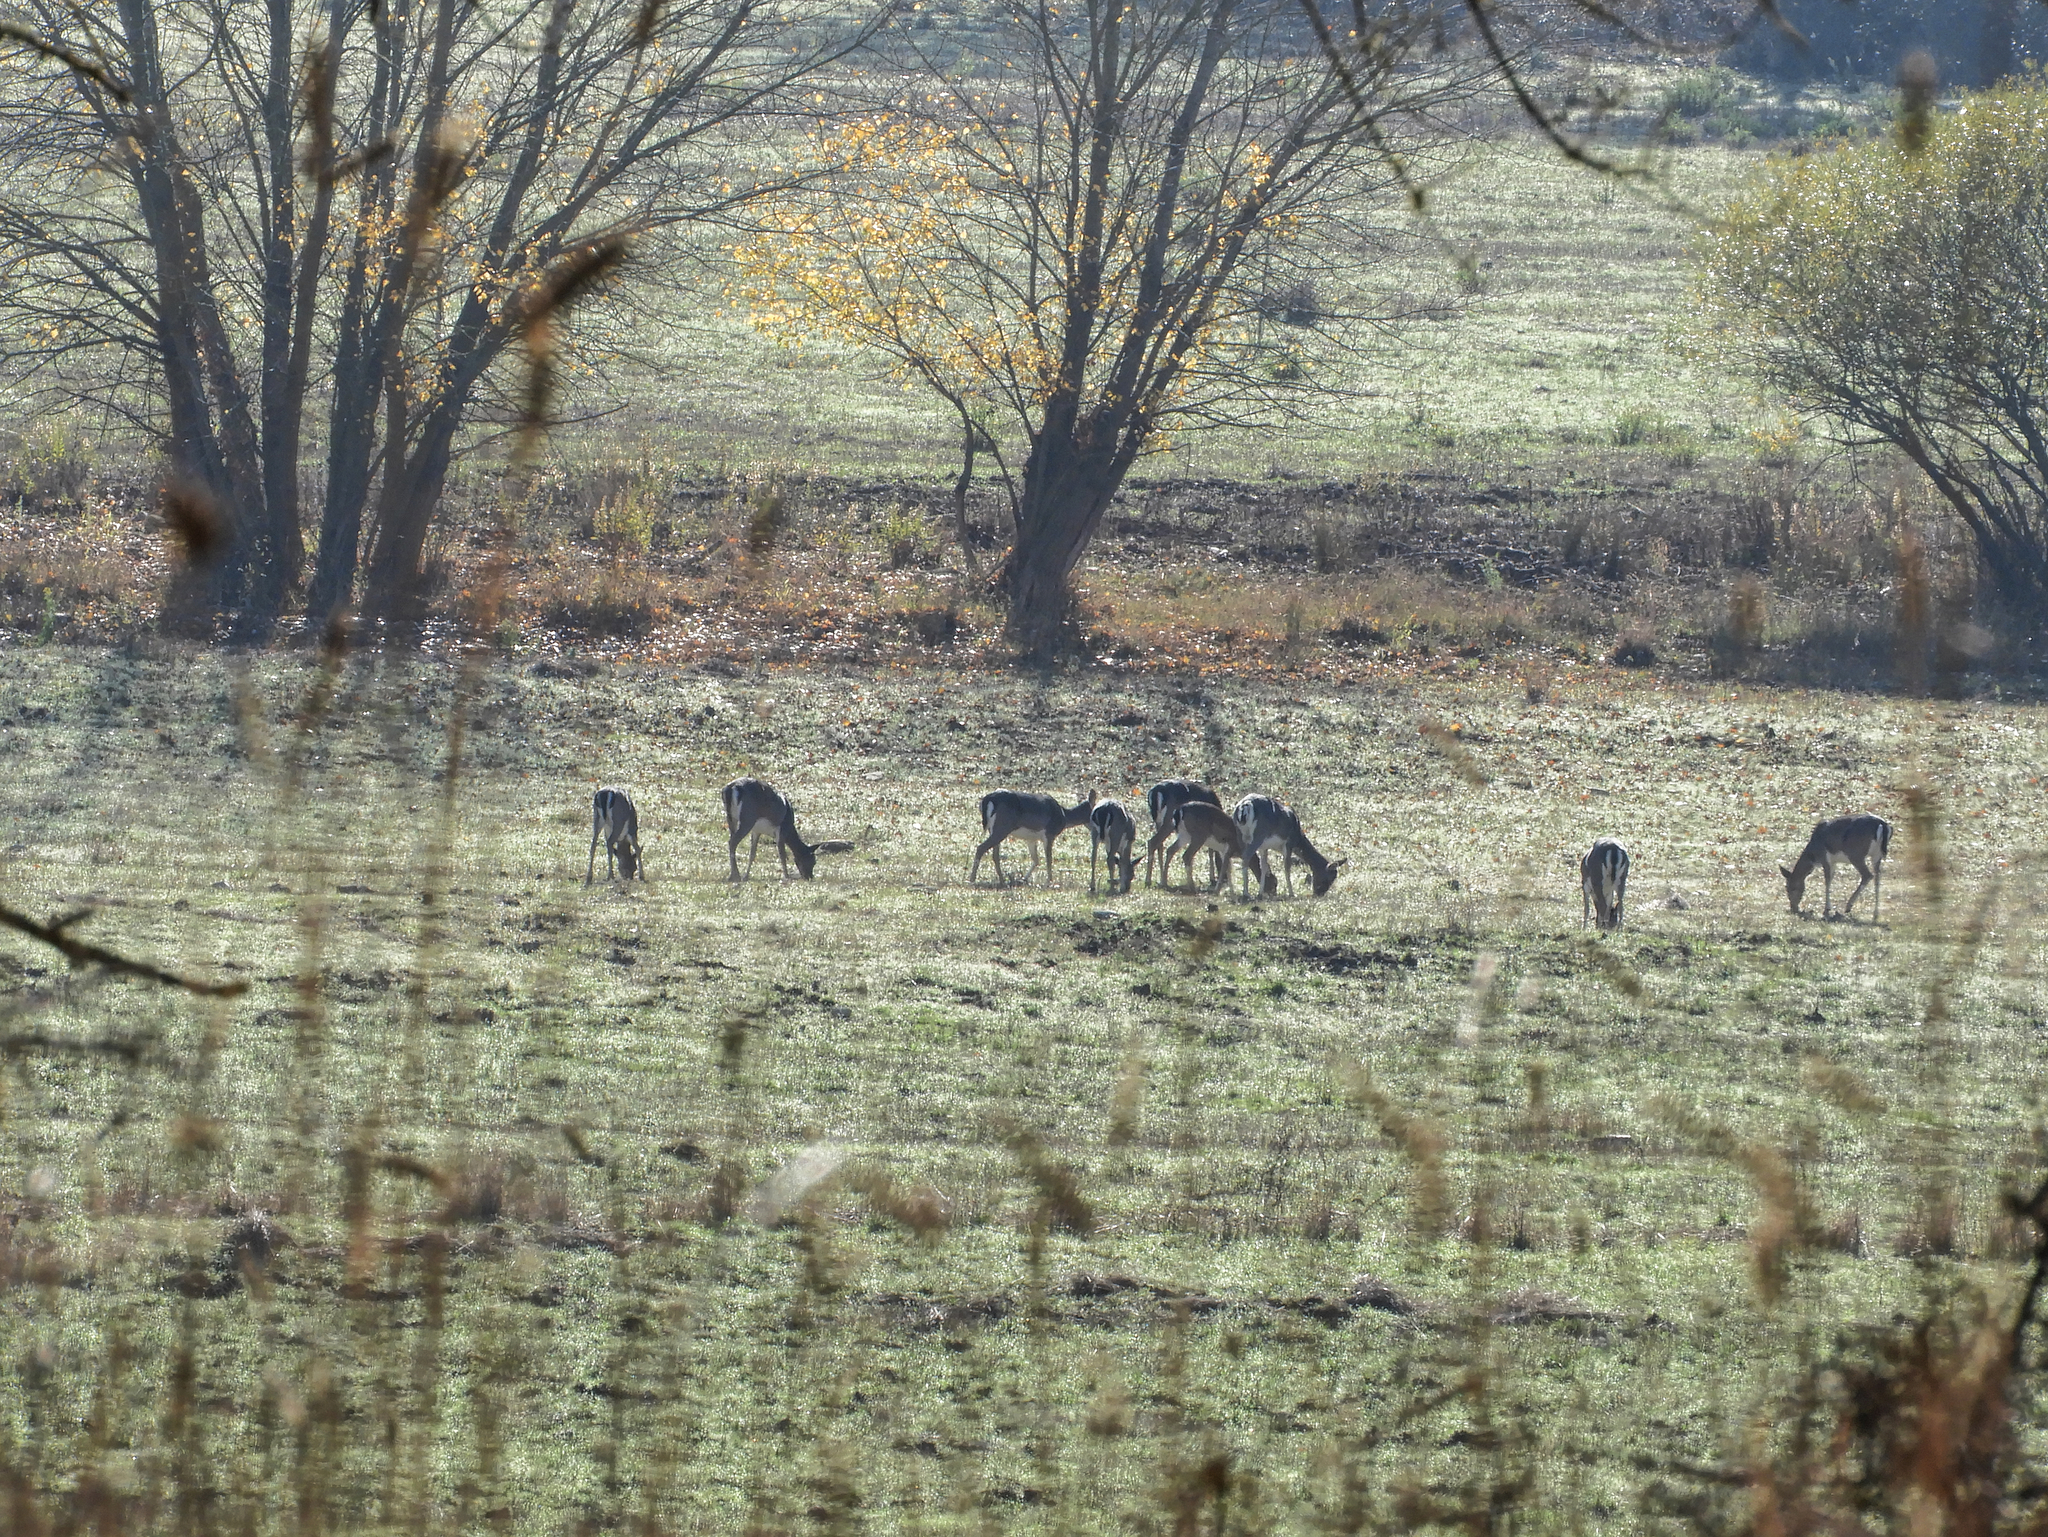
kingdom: Animalia
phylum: Chordata
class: Mammalia
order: Artiodactyla
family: Cervidae
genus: Dama
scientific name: Dama dama
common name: Fallow deer
